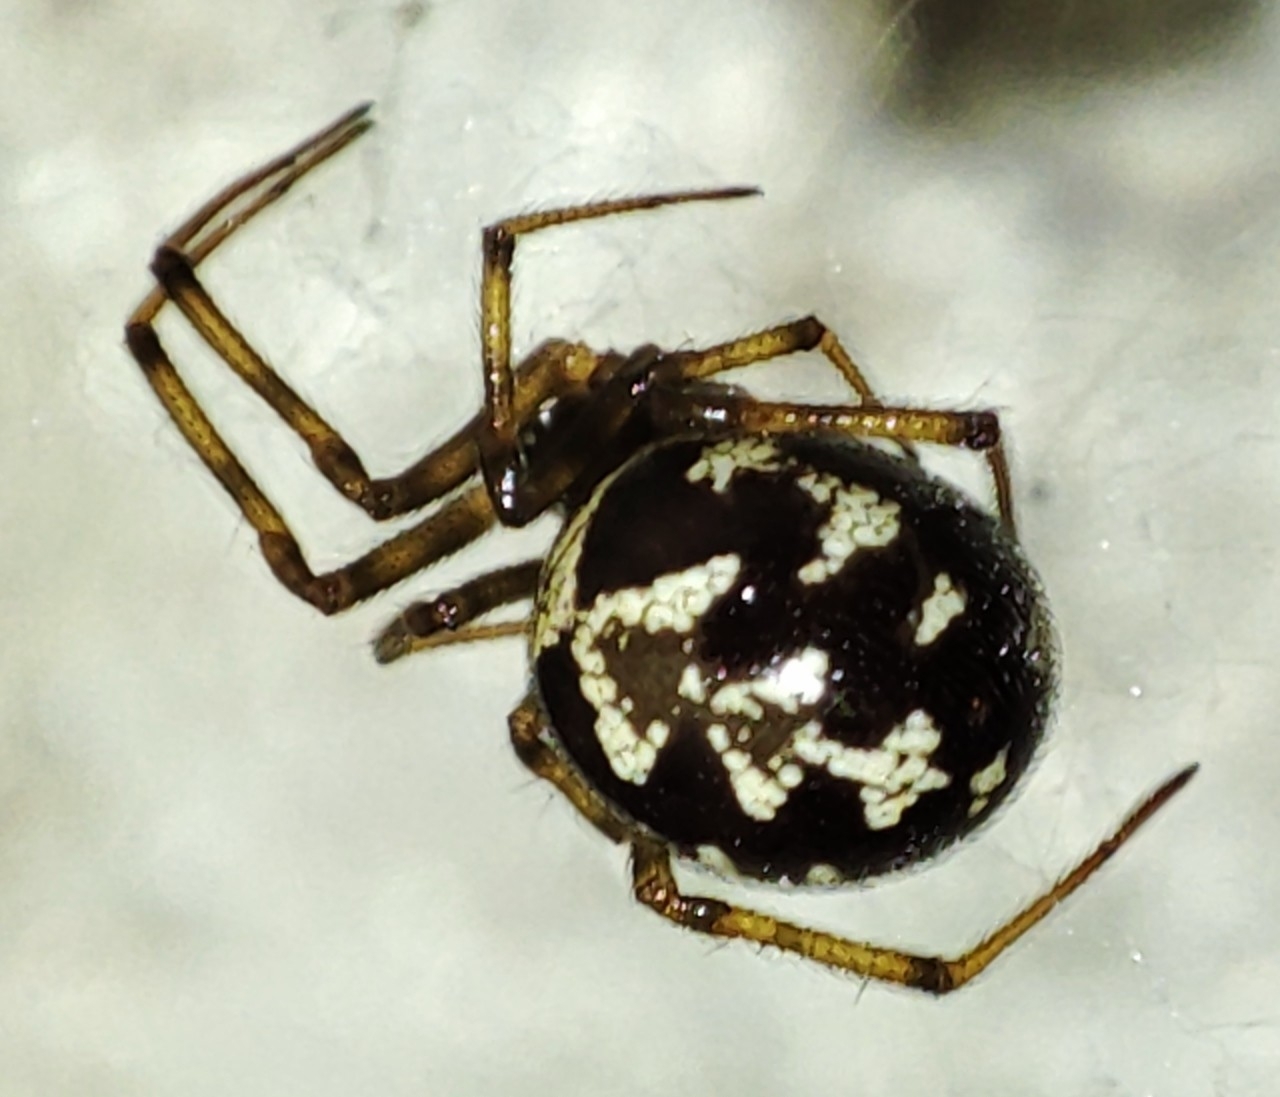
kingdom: Animalia
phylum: Arthropoda
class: Arachnida
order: Araneae
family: Theridiidae
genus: Steatoda
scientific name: Steatoda triangulosa
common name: Triangulate bud spider
